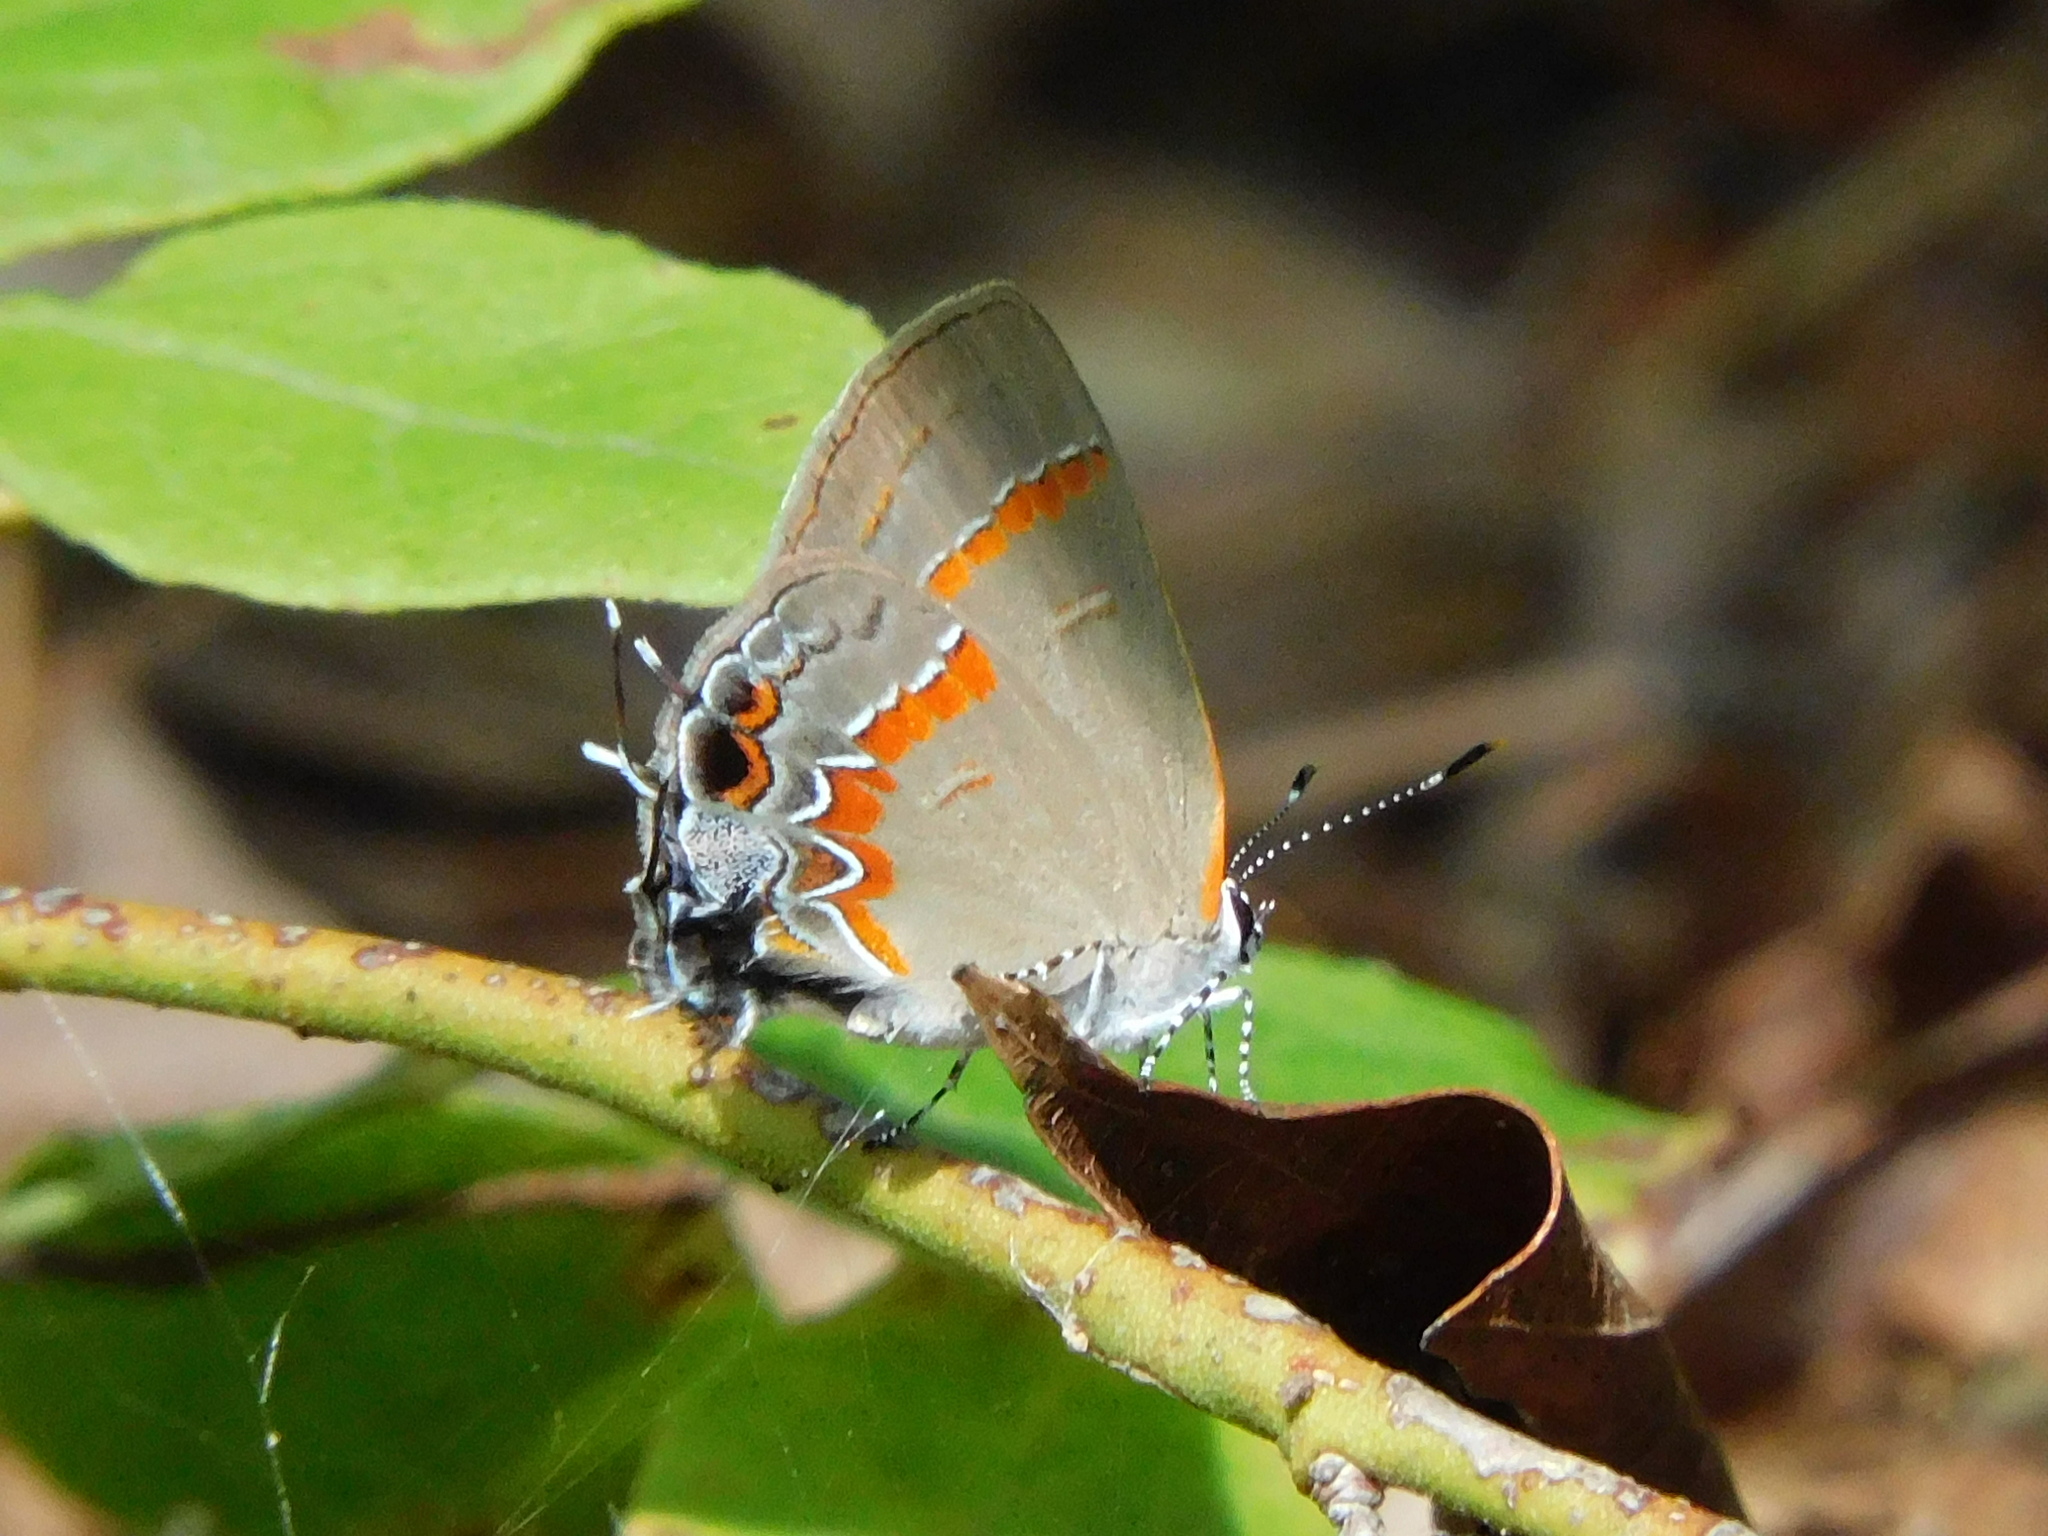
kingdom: Animalia
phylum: Arthropoda
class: Insecta
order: Lepidoptera
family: Lycaenidae
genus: Calycopis
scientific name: Calycopis cecrops
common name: Red-banded hairstreak
